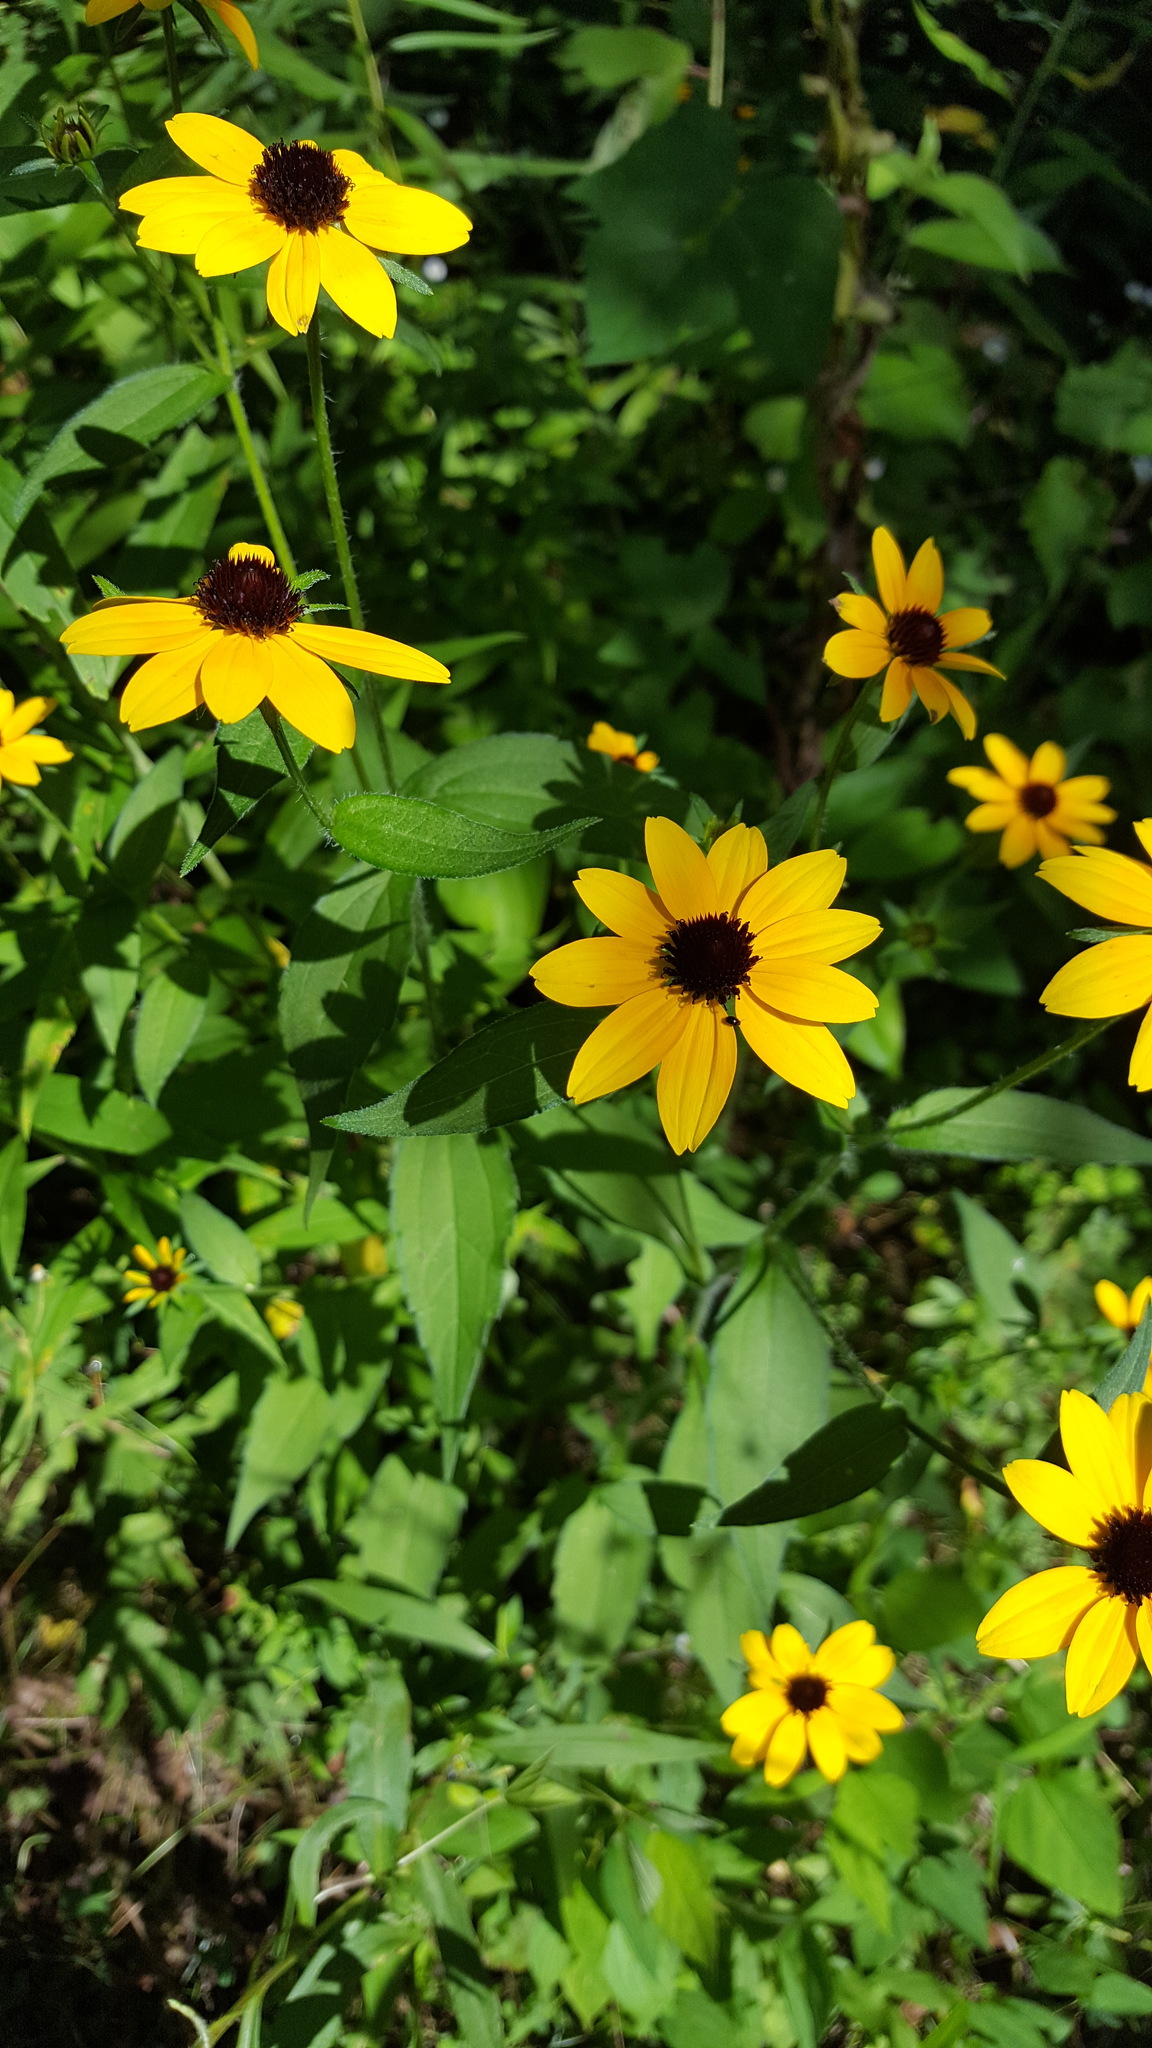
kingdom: Plantae
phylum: Tracheophyta
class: Magnoliopsida
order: Asterales
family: Asteraceae
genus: Rudbeckia
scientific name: Rudbeckia triloba
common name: Thin-leaved coneflower
